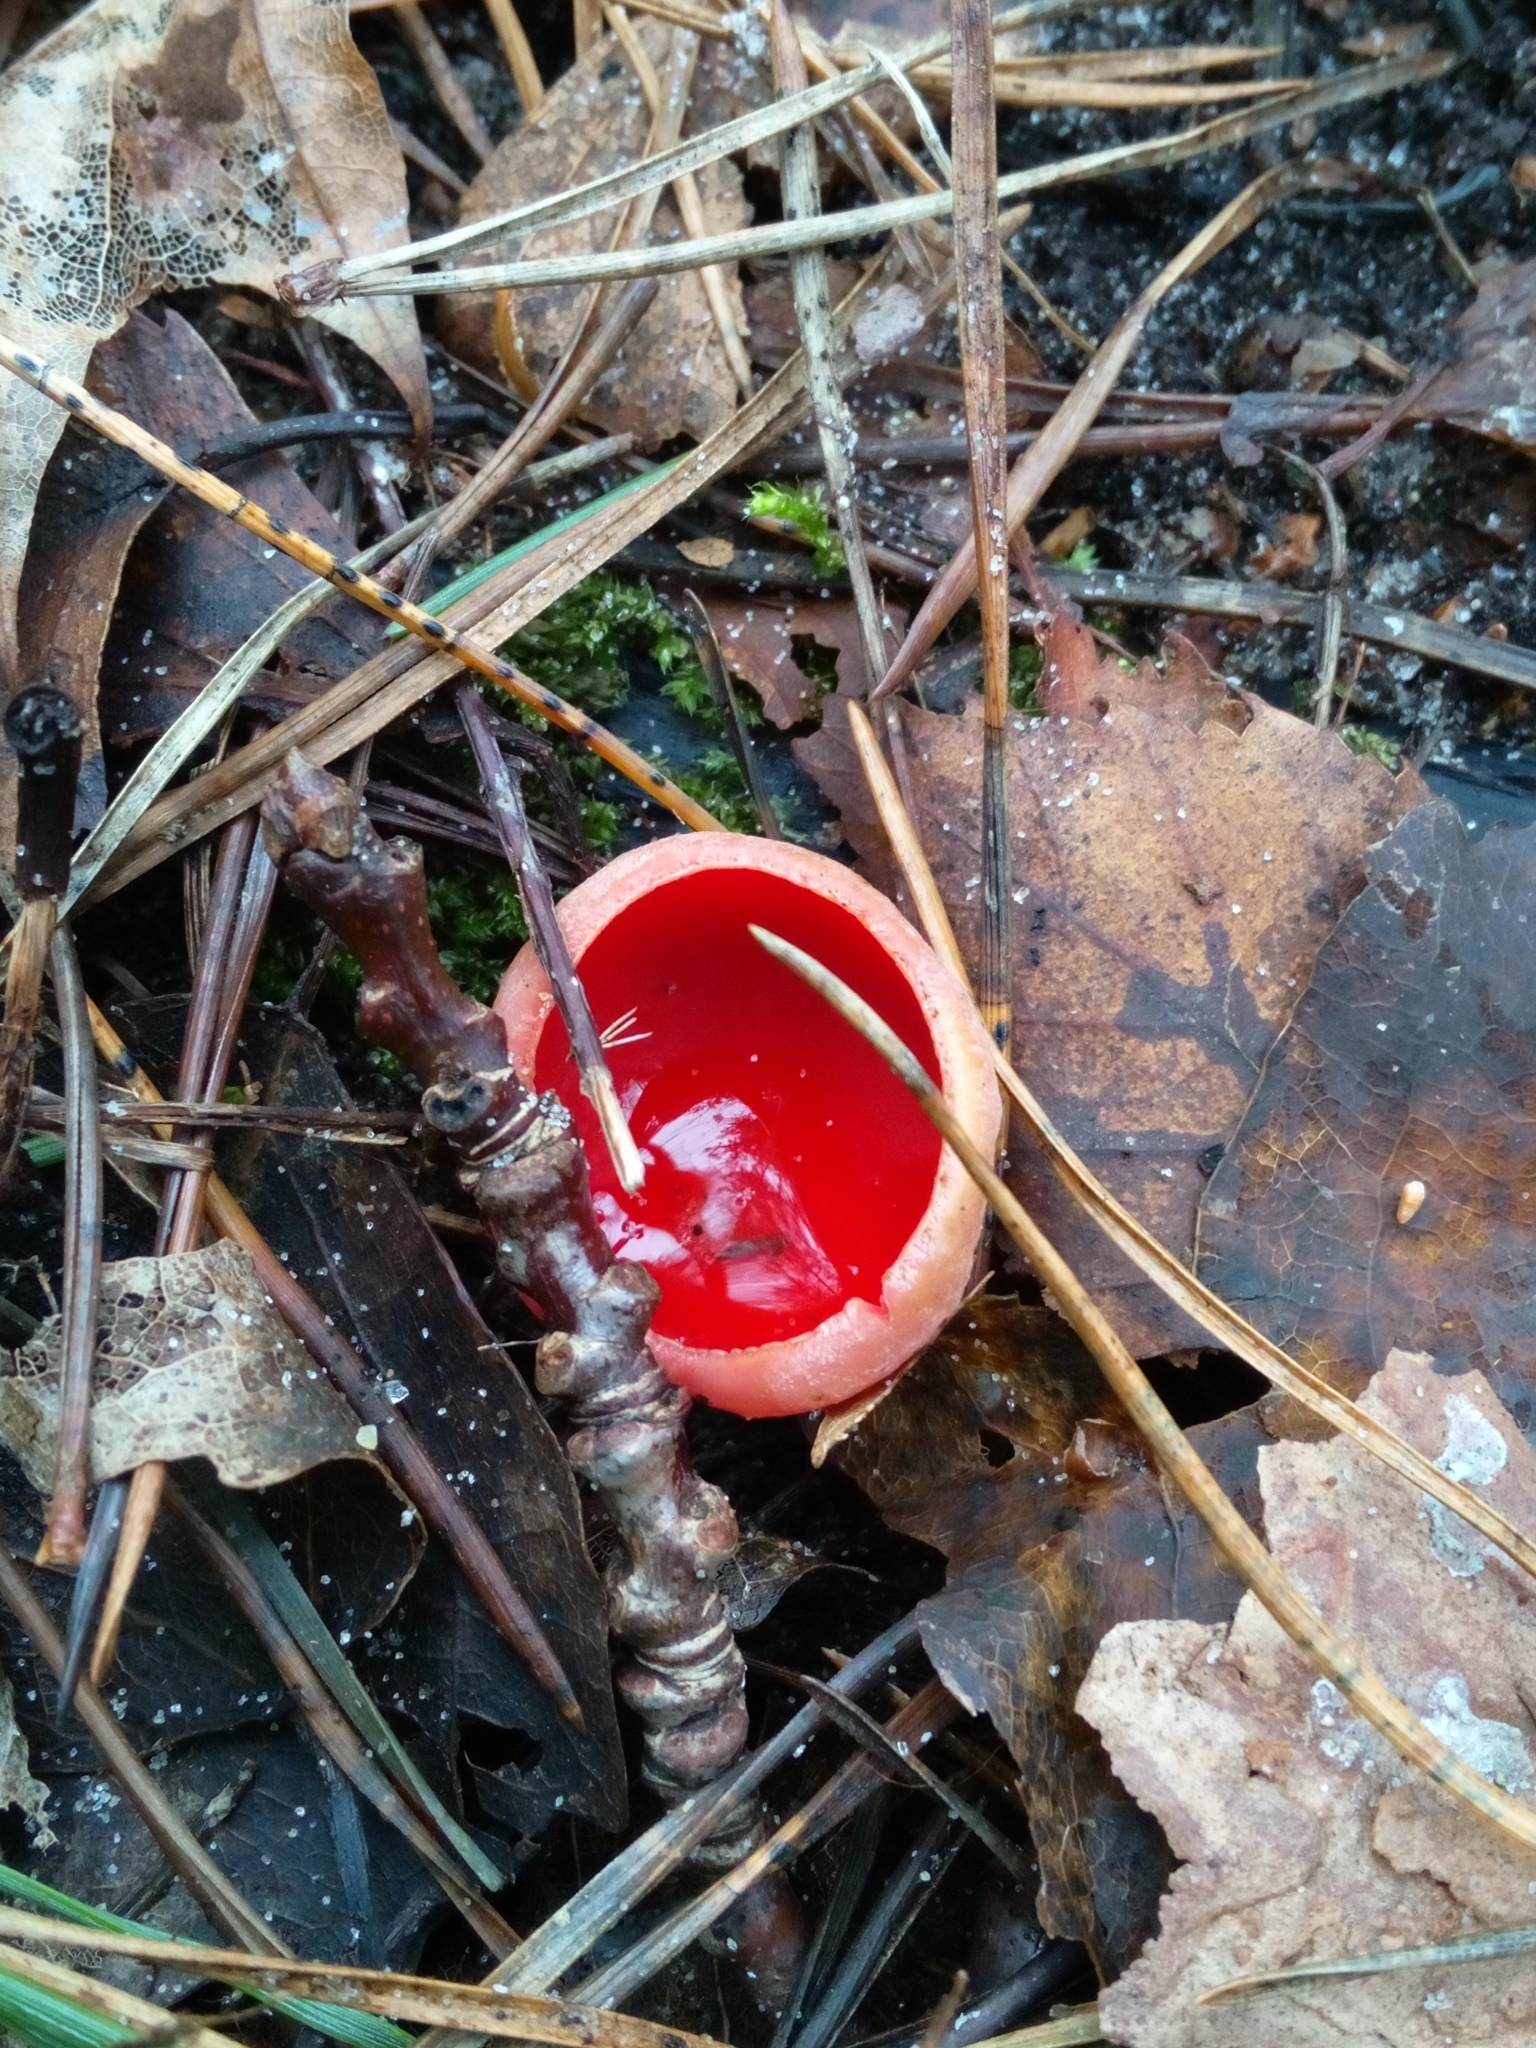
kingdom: Fungi
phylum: Ascomycota
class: Pezizomycetes
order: Pezizales
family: Sarcoscyphaceae
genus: Sarcoscypha
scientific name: Sarcoscypha
